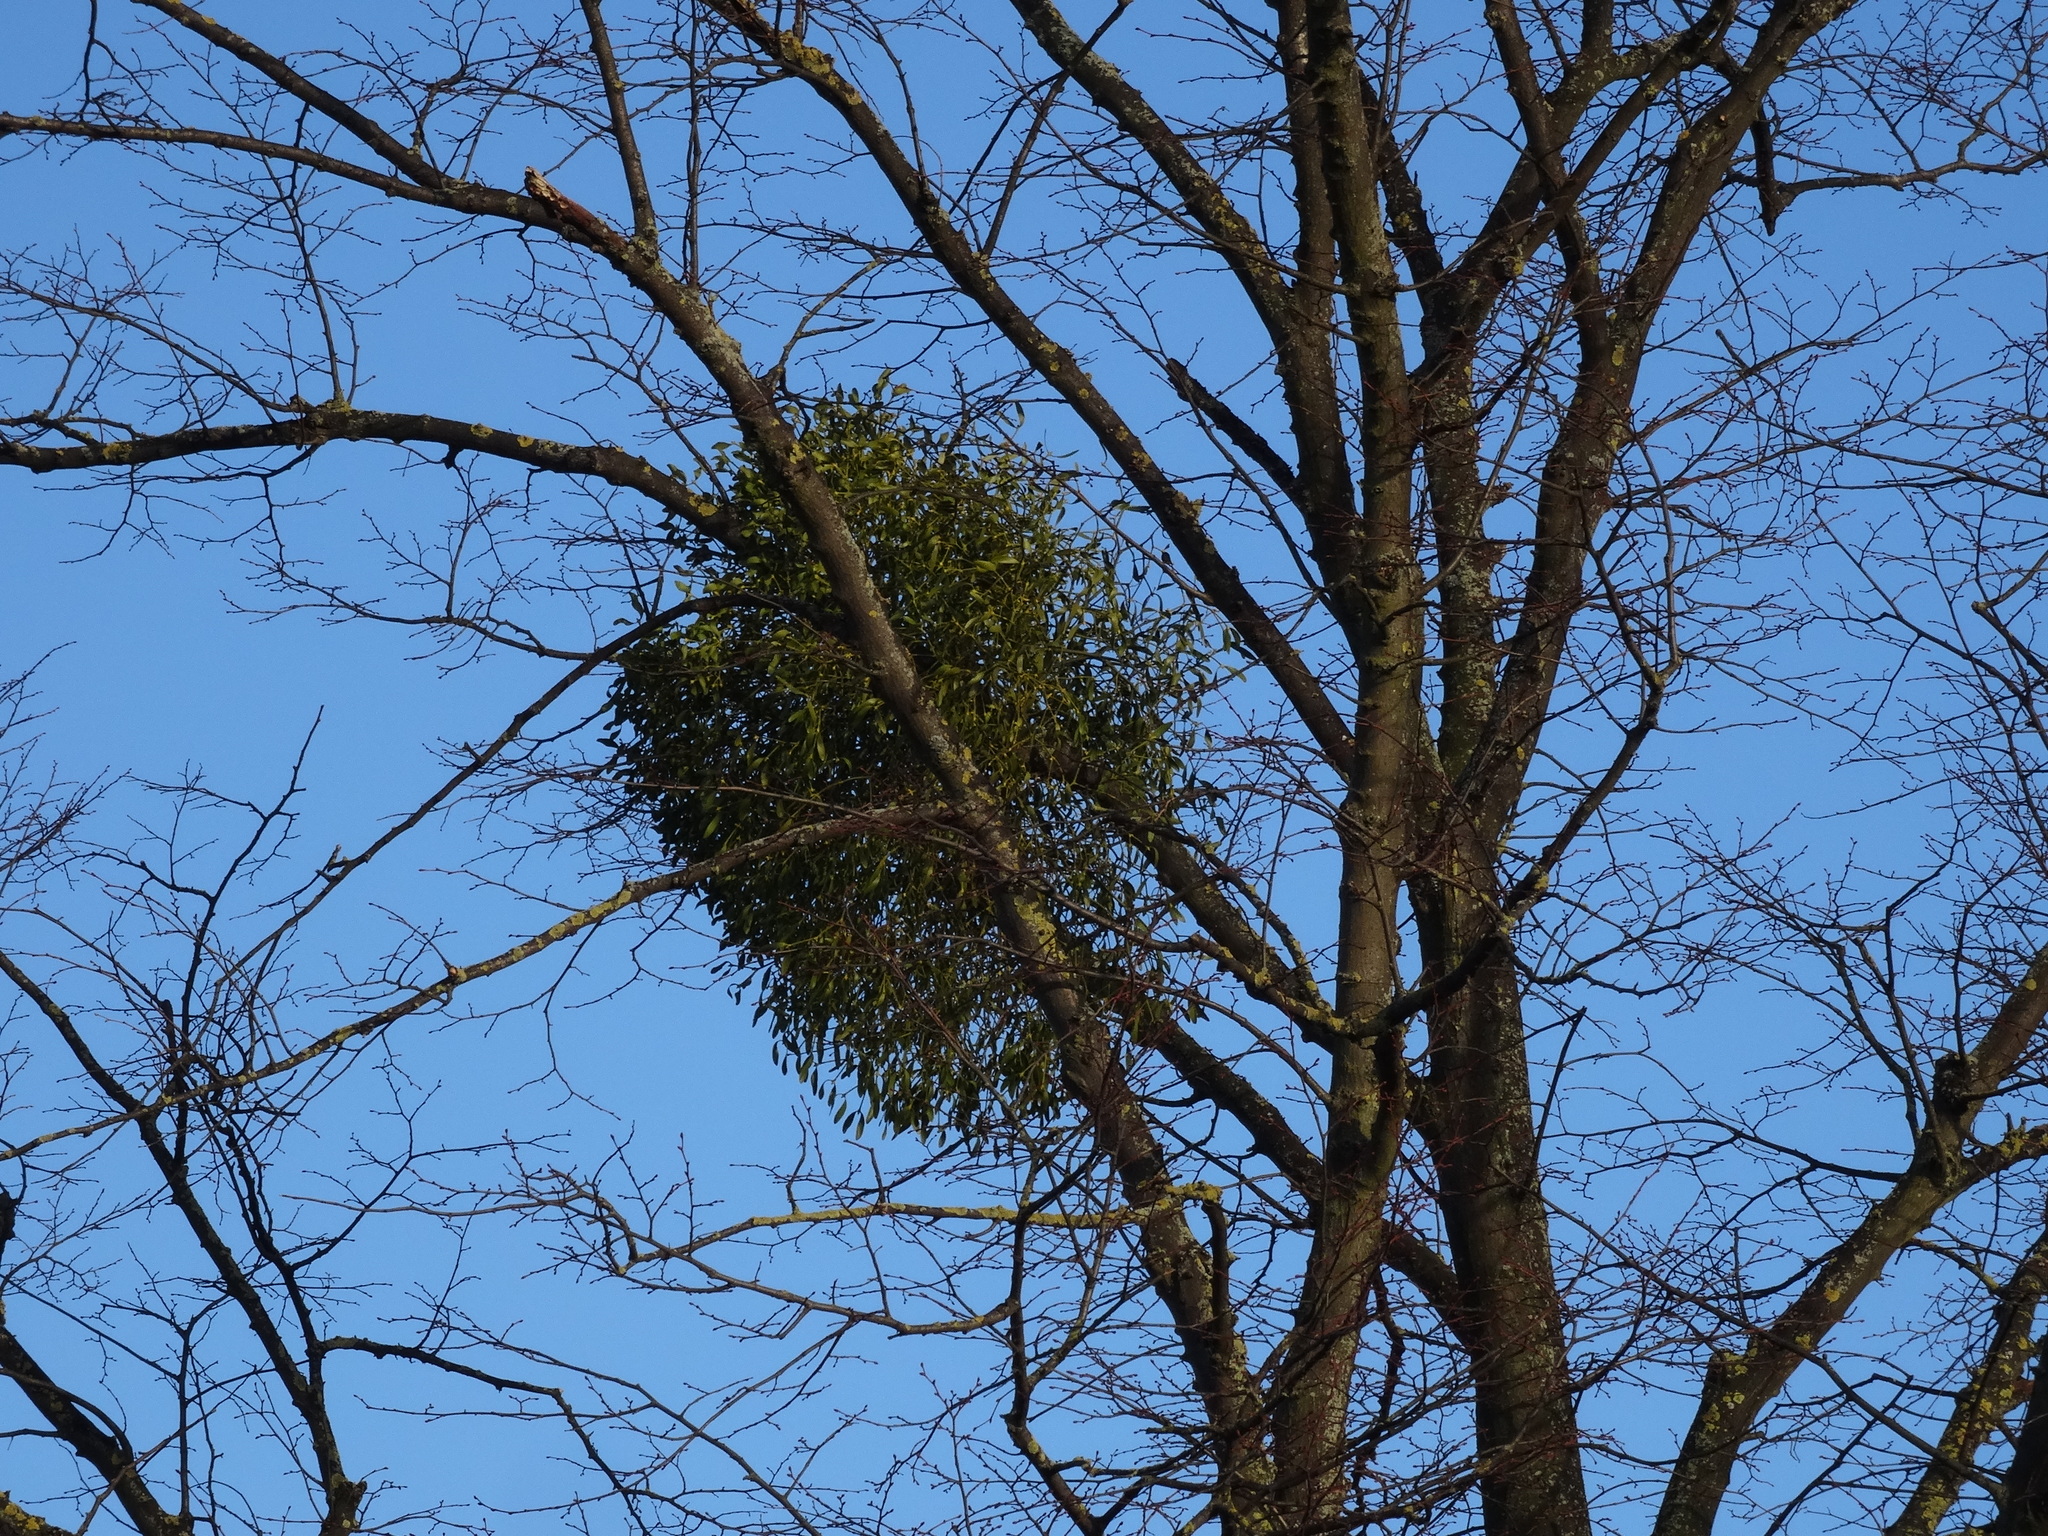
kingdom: Plantae
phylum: Tracheophyta
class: Magnoliopsida
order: Santalales
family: Viscaceae
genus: Viscum
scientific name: Viscum album
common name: Mistletoe
